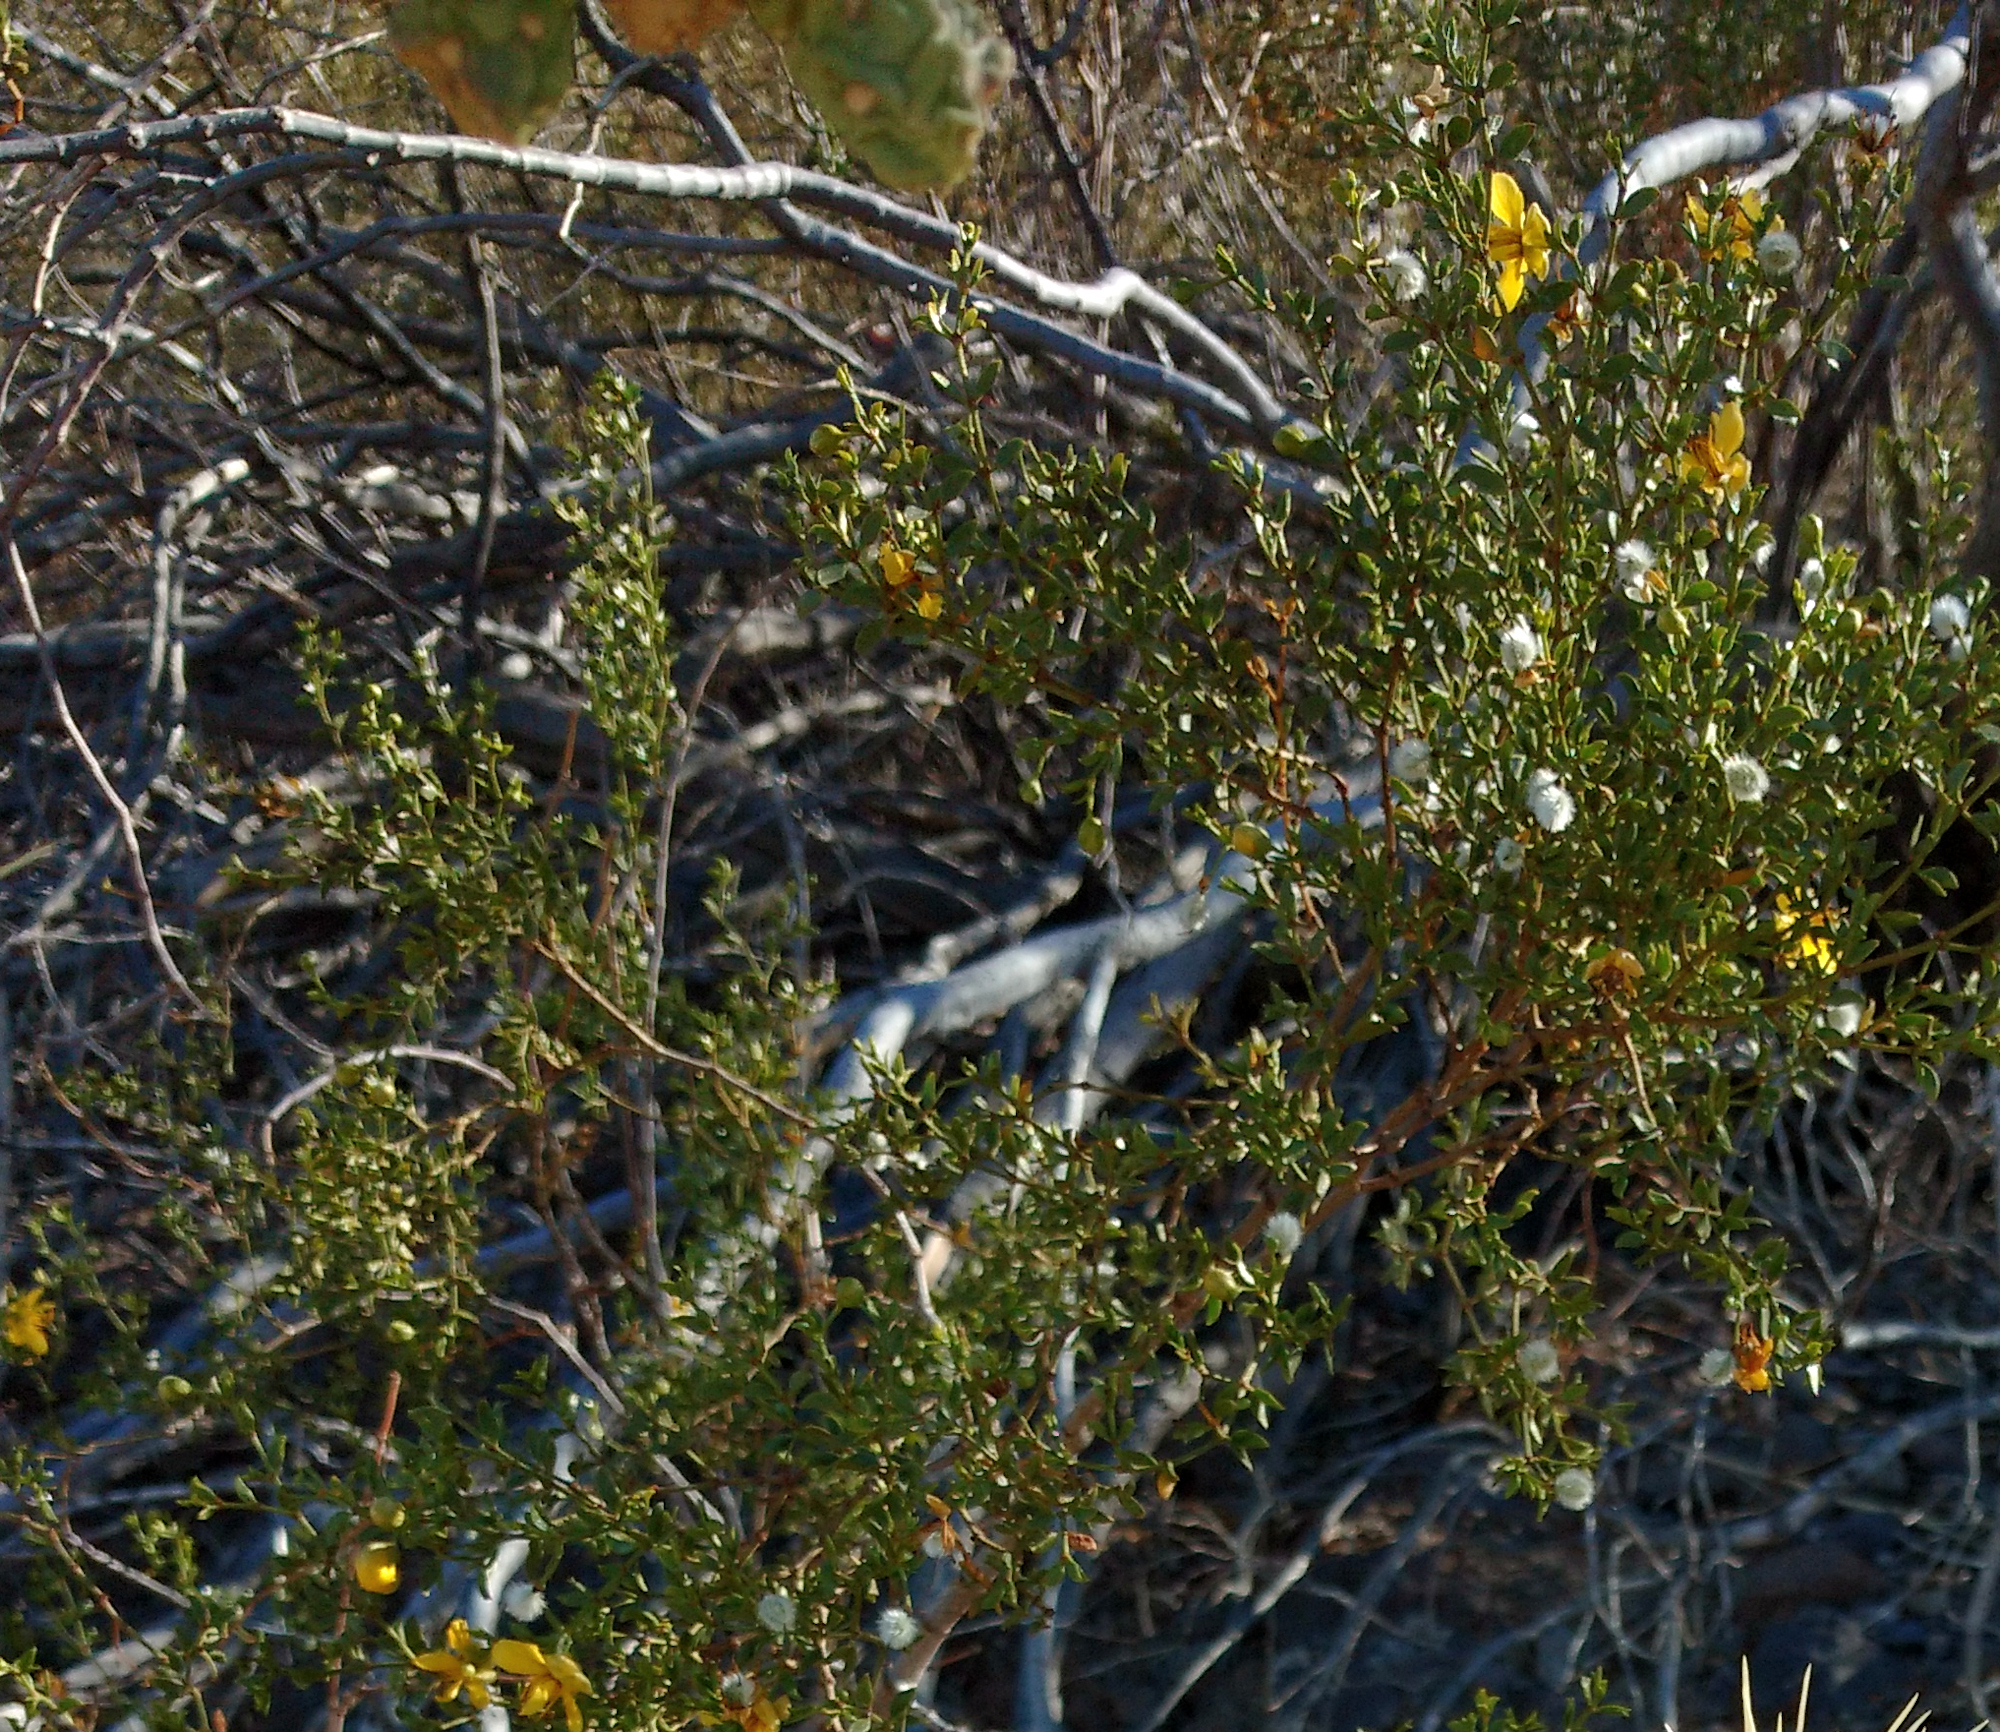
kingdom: Plantae
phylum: Tracheophyta
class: Magnoliopsida
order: Zygophyllales
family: Zygophyllaceae
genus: Larrea
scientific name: Larrea tridentata
